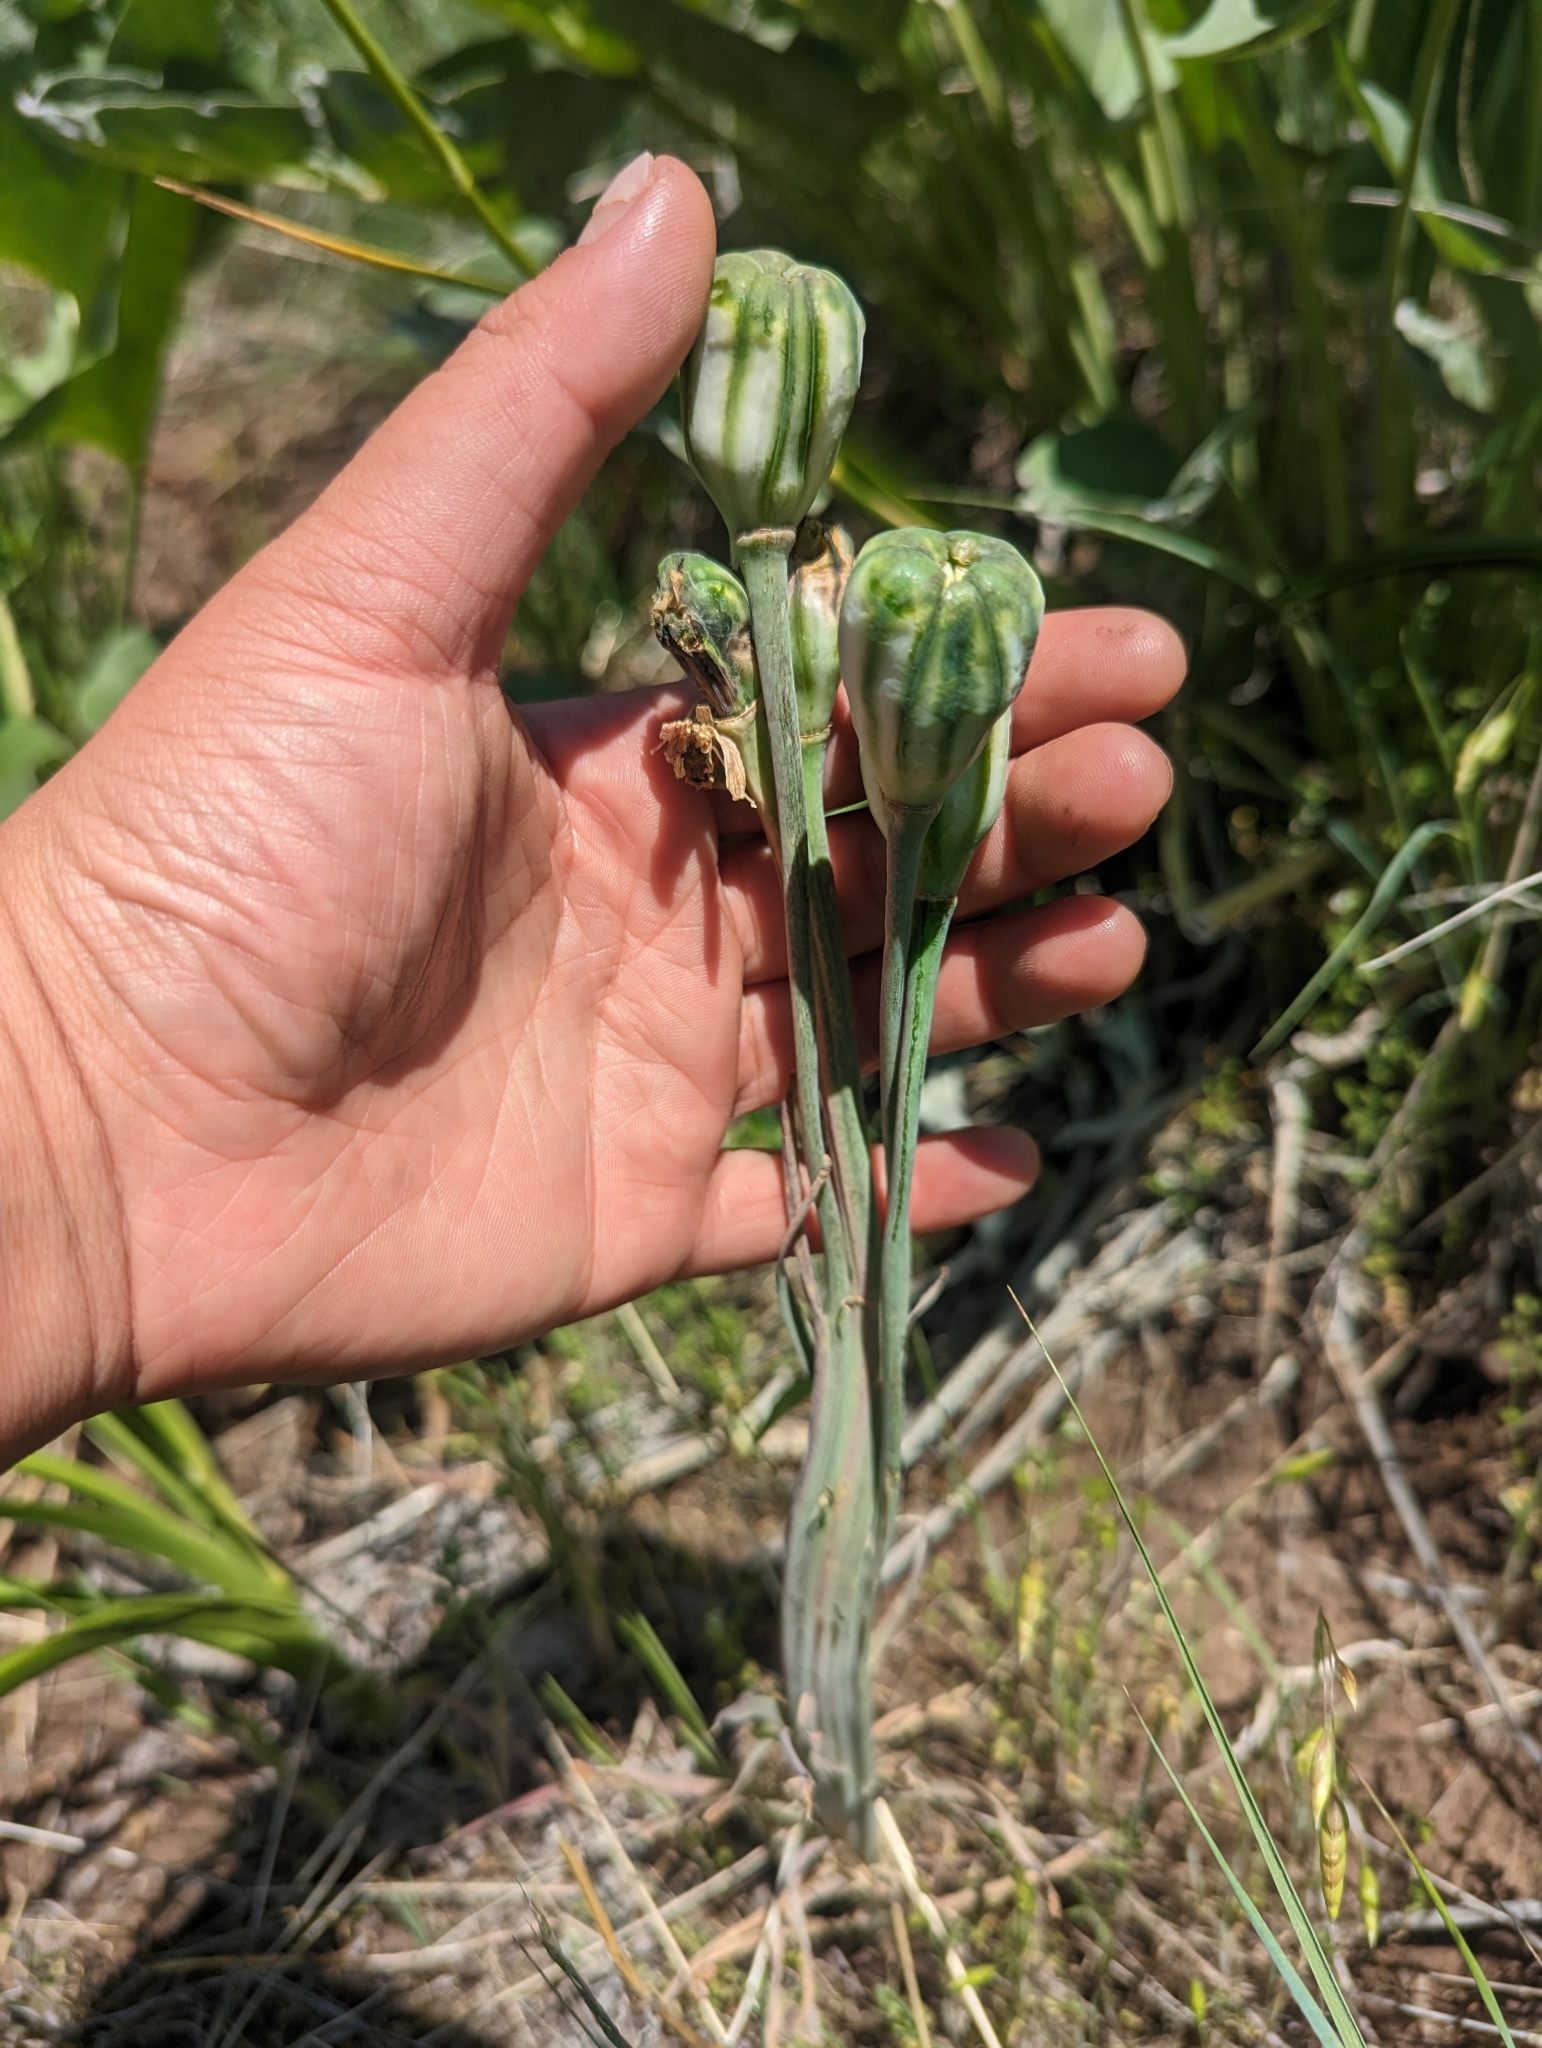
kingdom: Plantae
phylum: Tracheophyta
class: Liliopsida
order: Liliales
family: Liliaceae
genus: Fritillaria
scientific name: Fritillaria pudica
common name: Yellow fritillary
